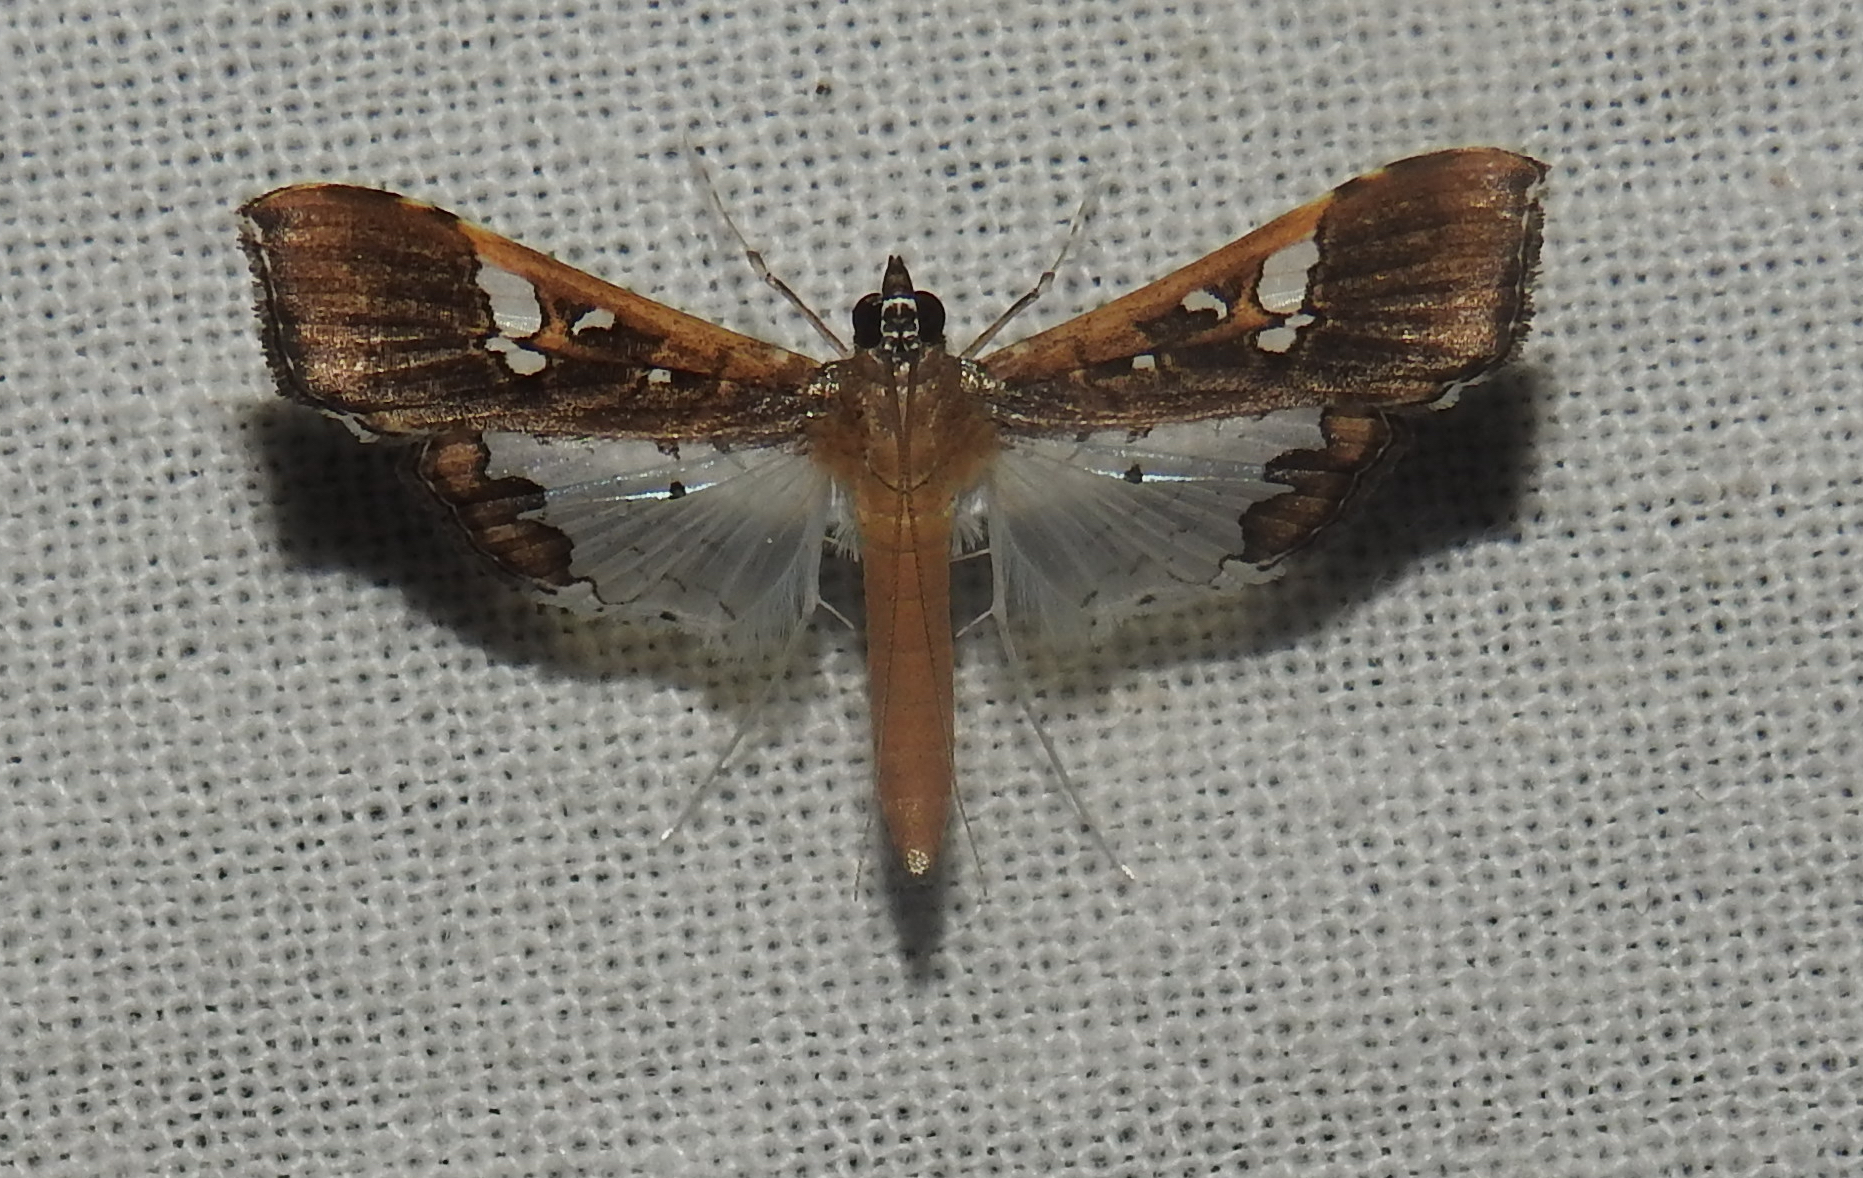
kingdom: Animalia
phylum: Arthropoda
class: Insecta
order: Lepidoptera
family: Crambidae
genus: Maruca
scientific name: Maruca vitrata
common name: Maruca pod borer
